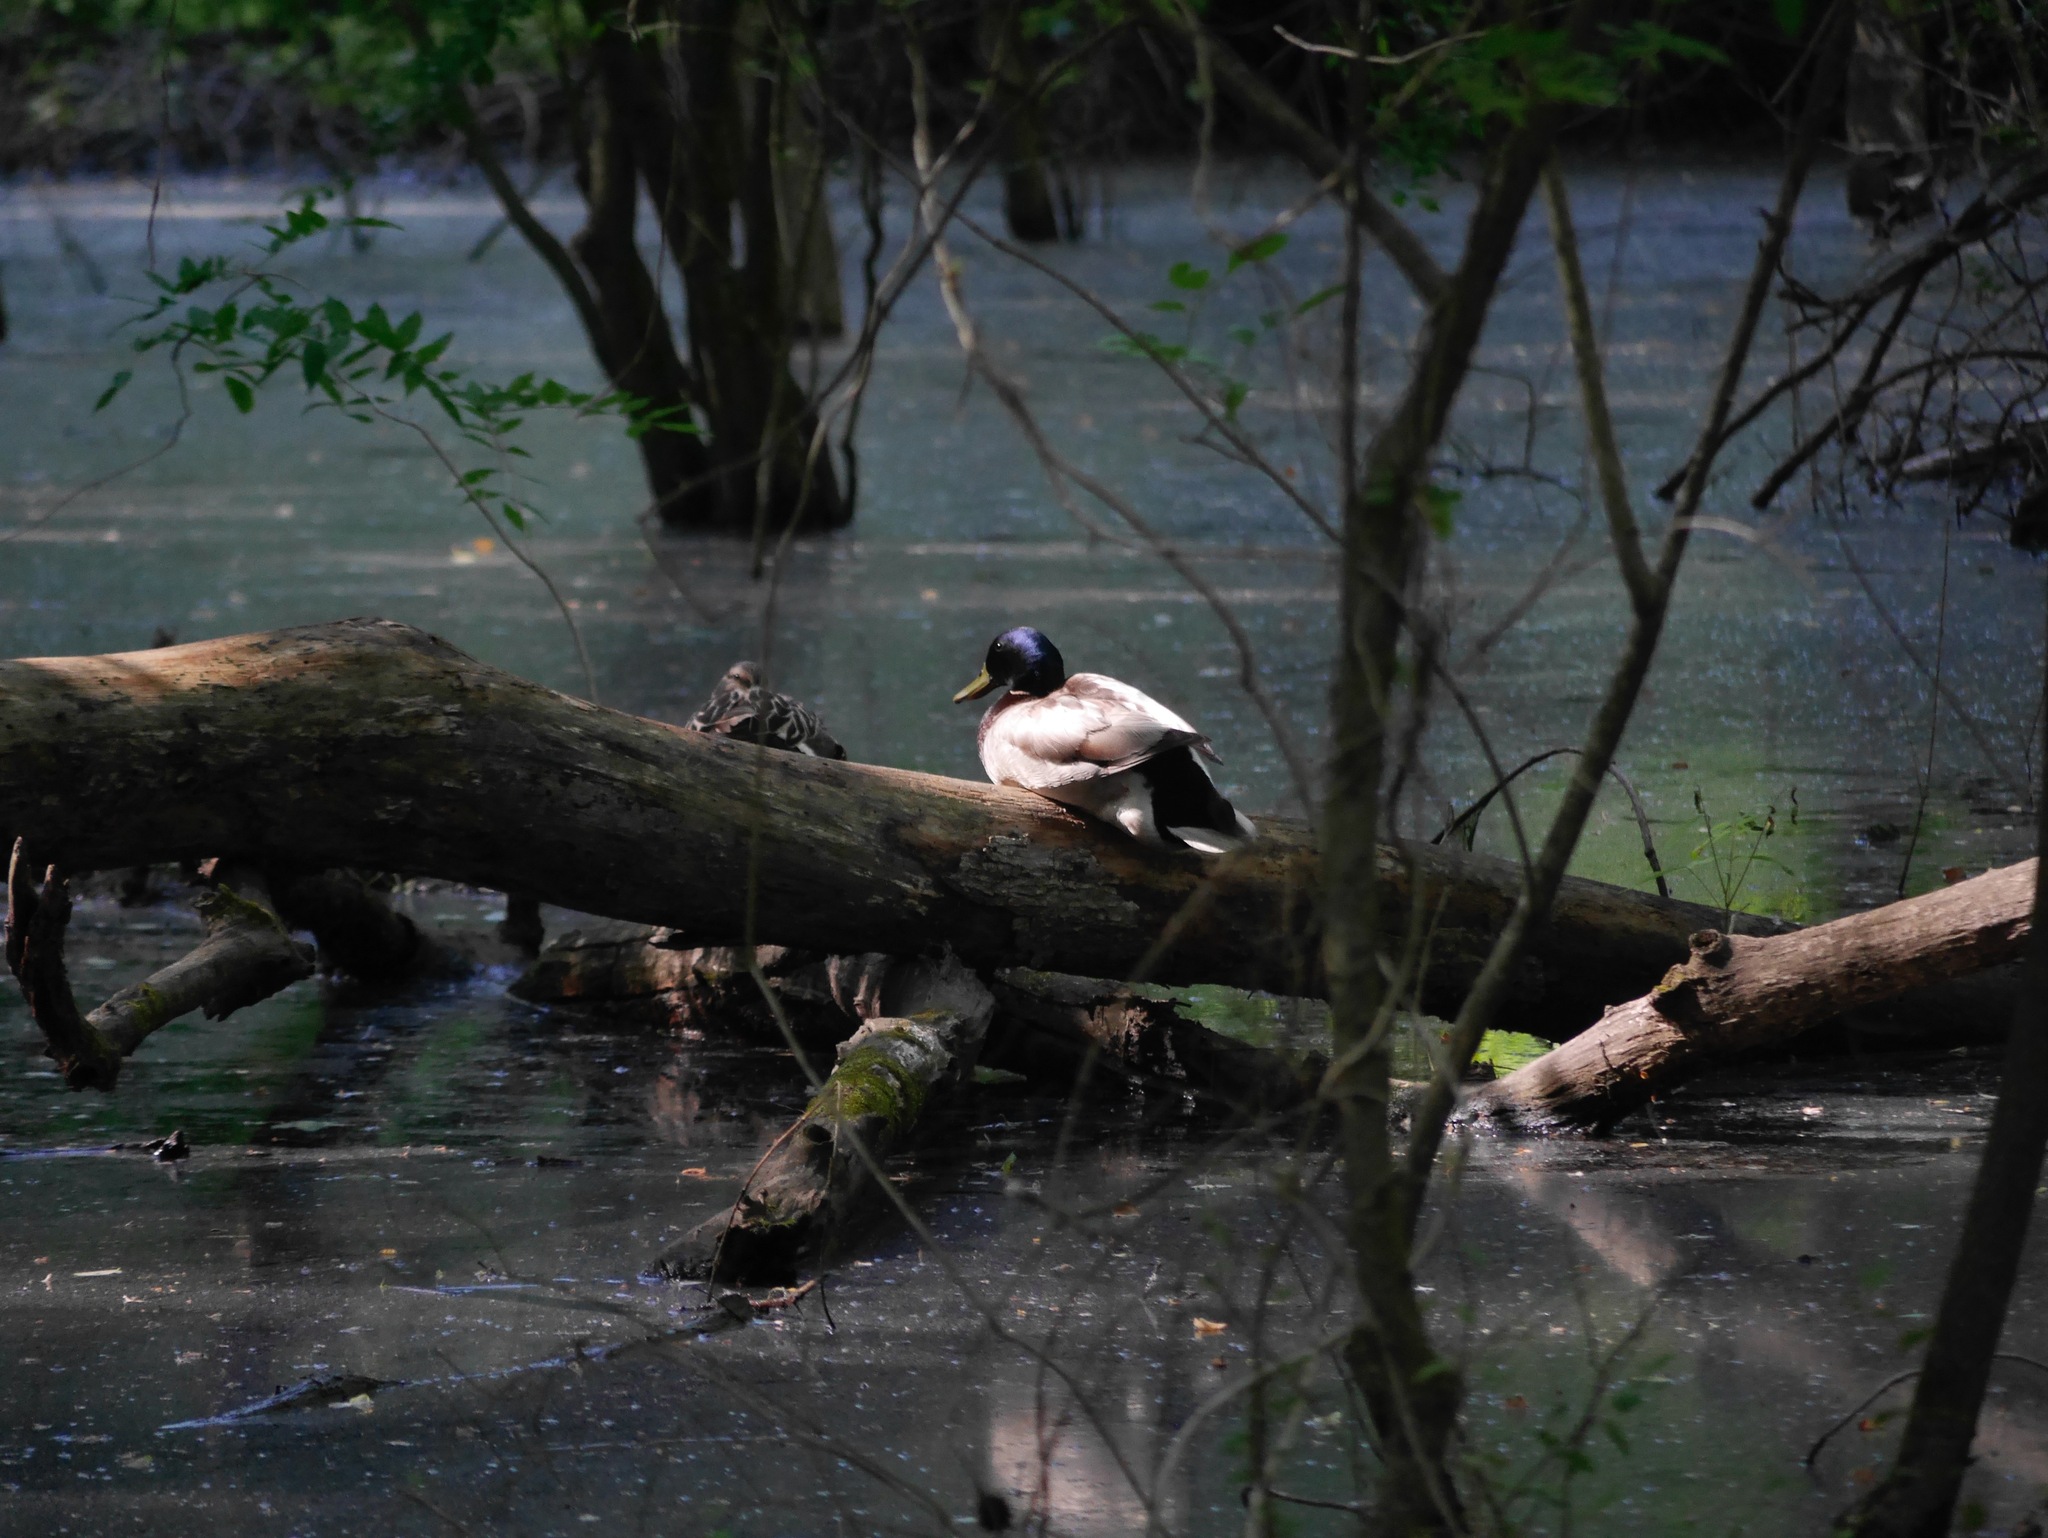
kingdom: Animalia
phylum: Chordata
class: Aves
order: Anseriformes
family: Anatidae
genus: Anas
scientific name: Anas platyrhynchos
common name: Mallard
